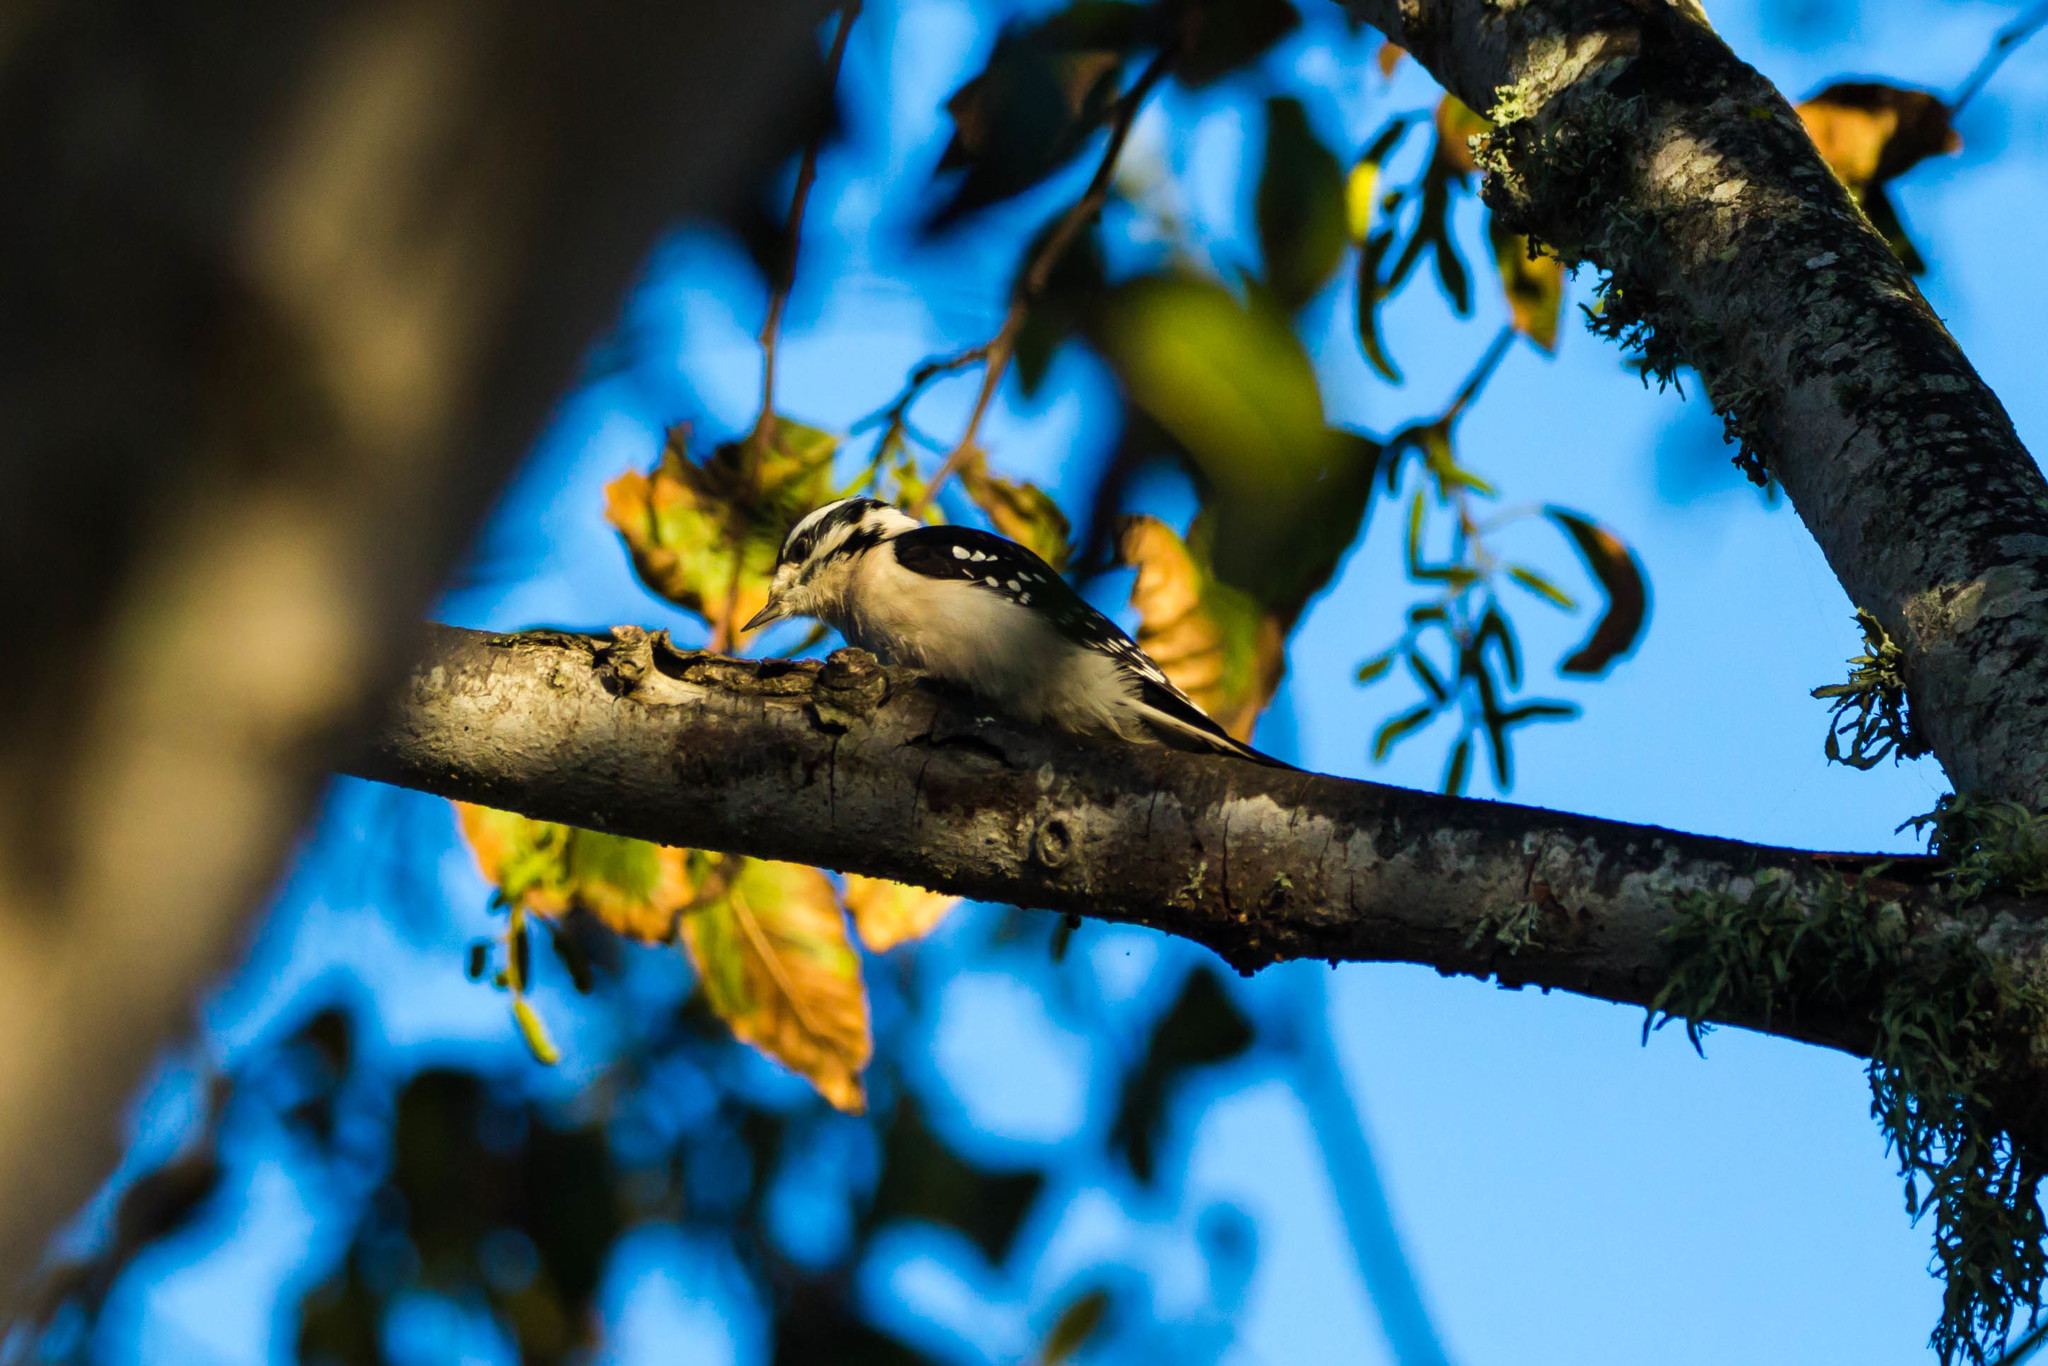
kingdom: Animalia
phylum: Chordata
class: Aves
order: Piciformes
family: Picidae
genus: Dryobates
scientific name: Dryobates pubescens
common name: Downy woodpecker
